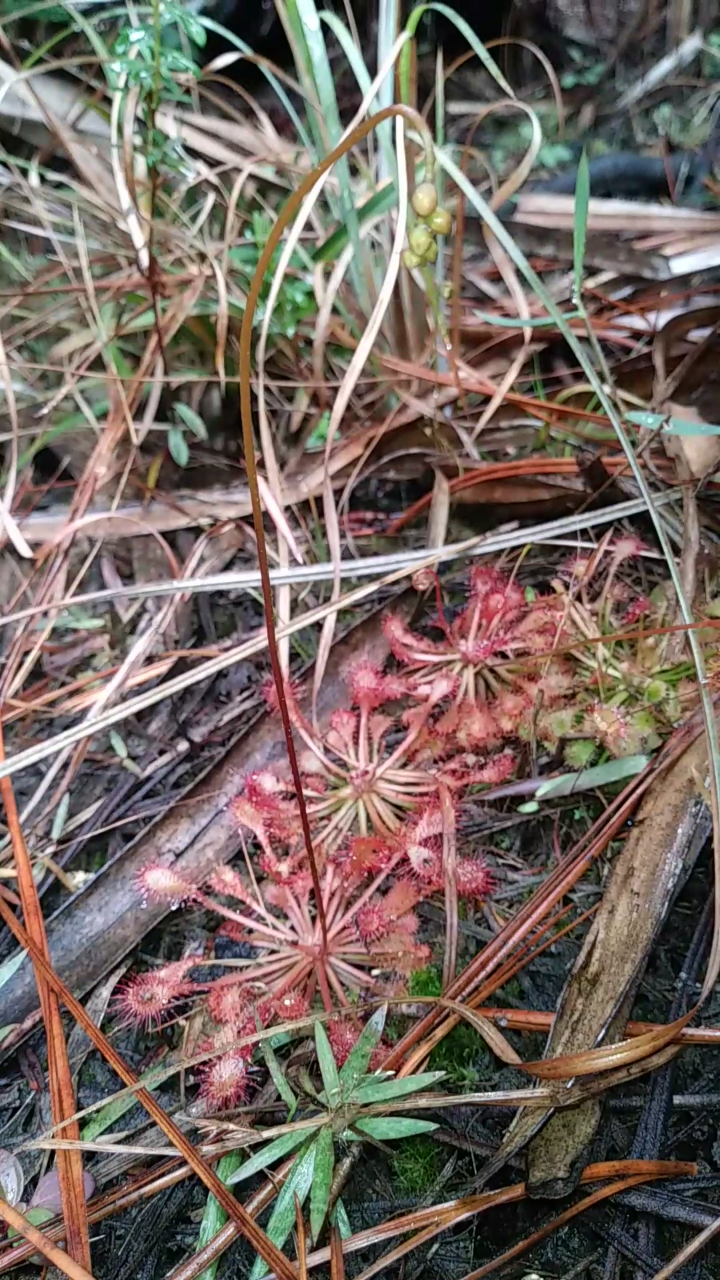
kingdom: Plantae
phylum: Tracheophyta
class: Magnoliopsida
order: Caryophyllales
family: Droseraceae
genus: Drosera
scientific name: Drosera capillaris
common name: Pink sundew
